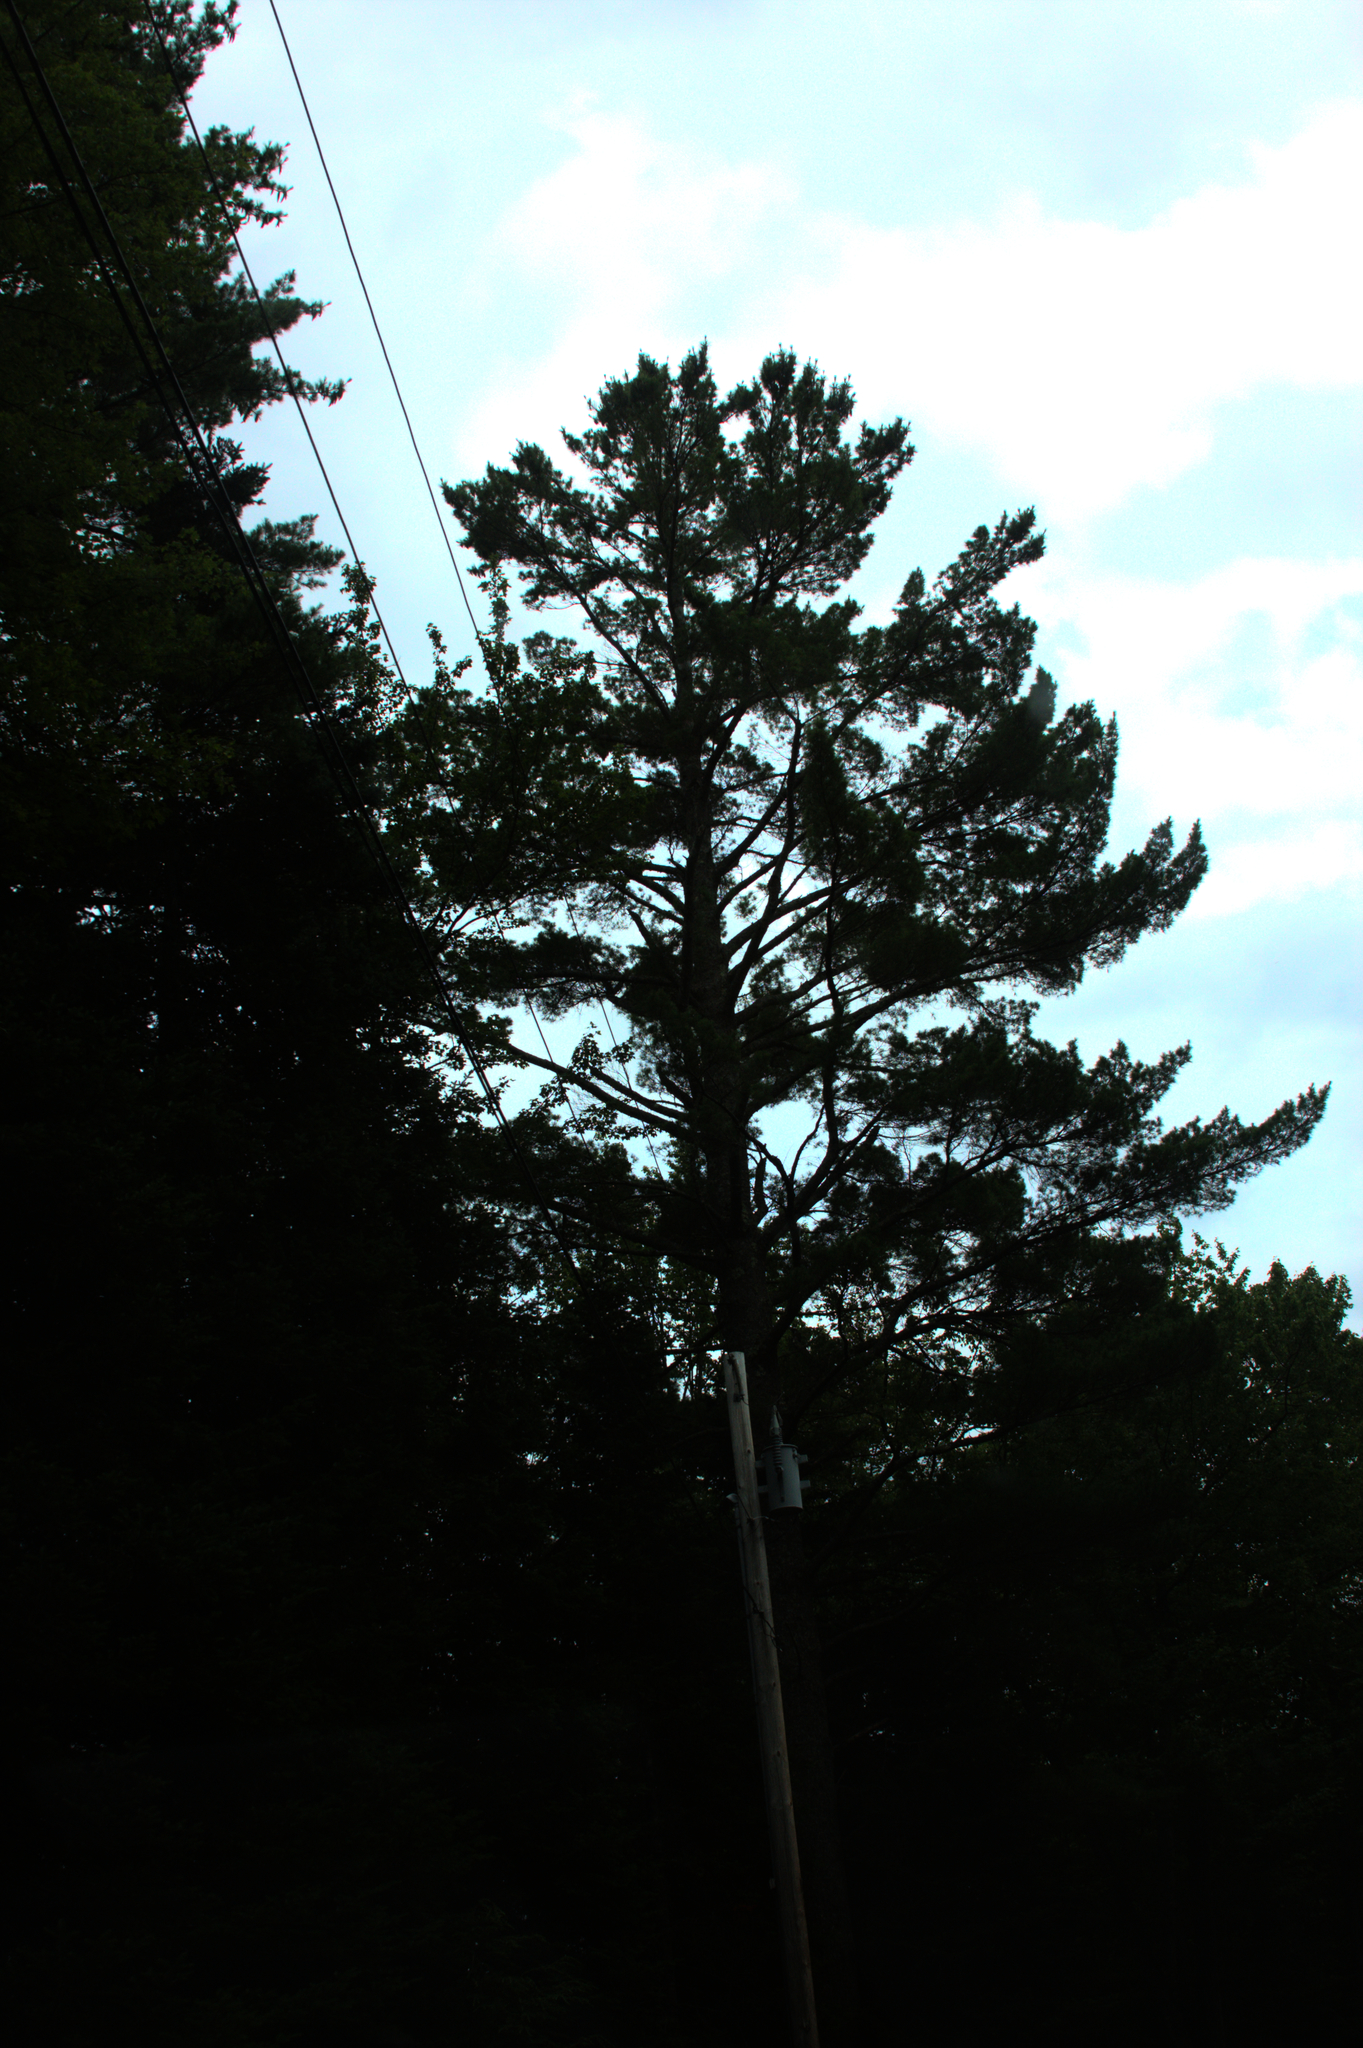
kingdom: Plantae
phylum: Tracheophyta
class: Pinopsida
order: Pinales
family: Pinaceae
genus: Pinus
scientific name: Pinus strobus
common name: Weymouth pine
